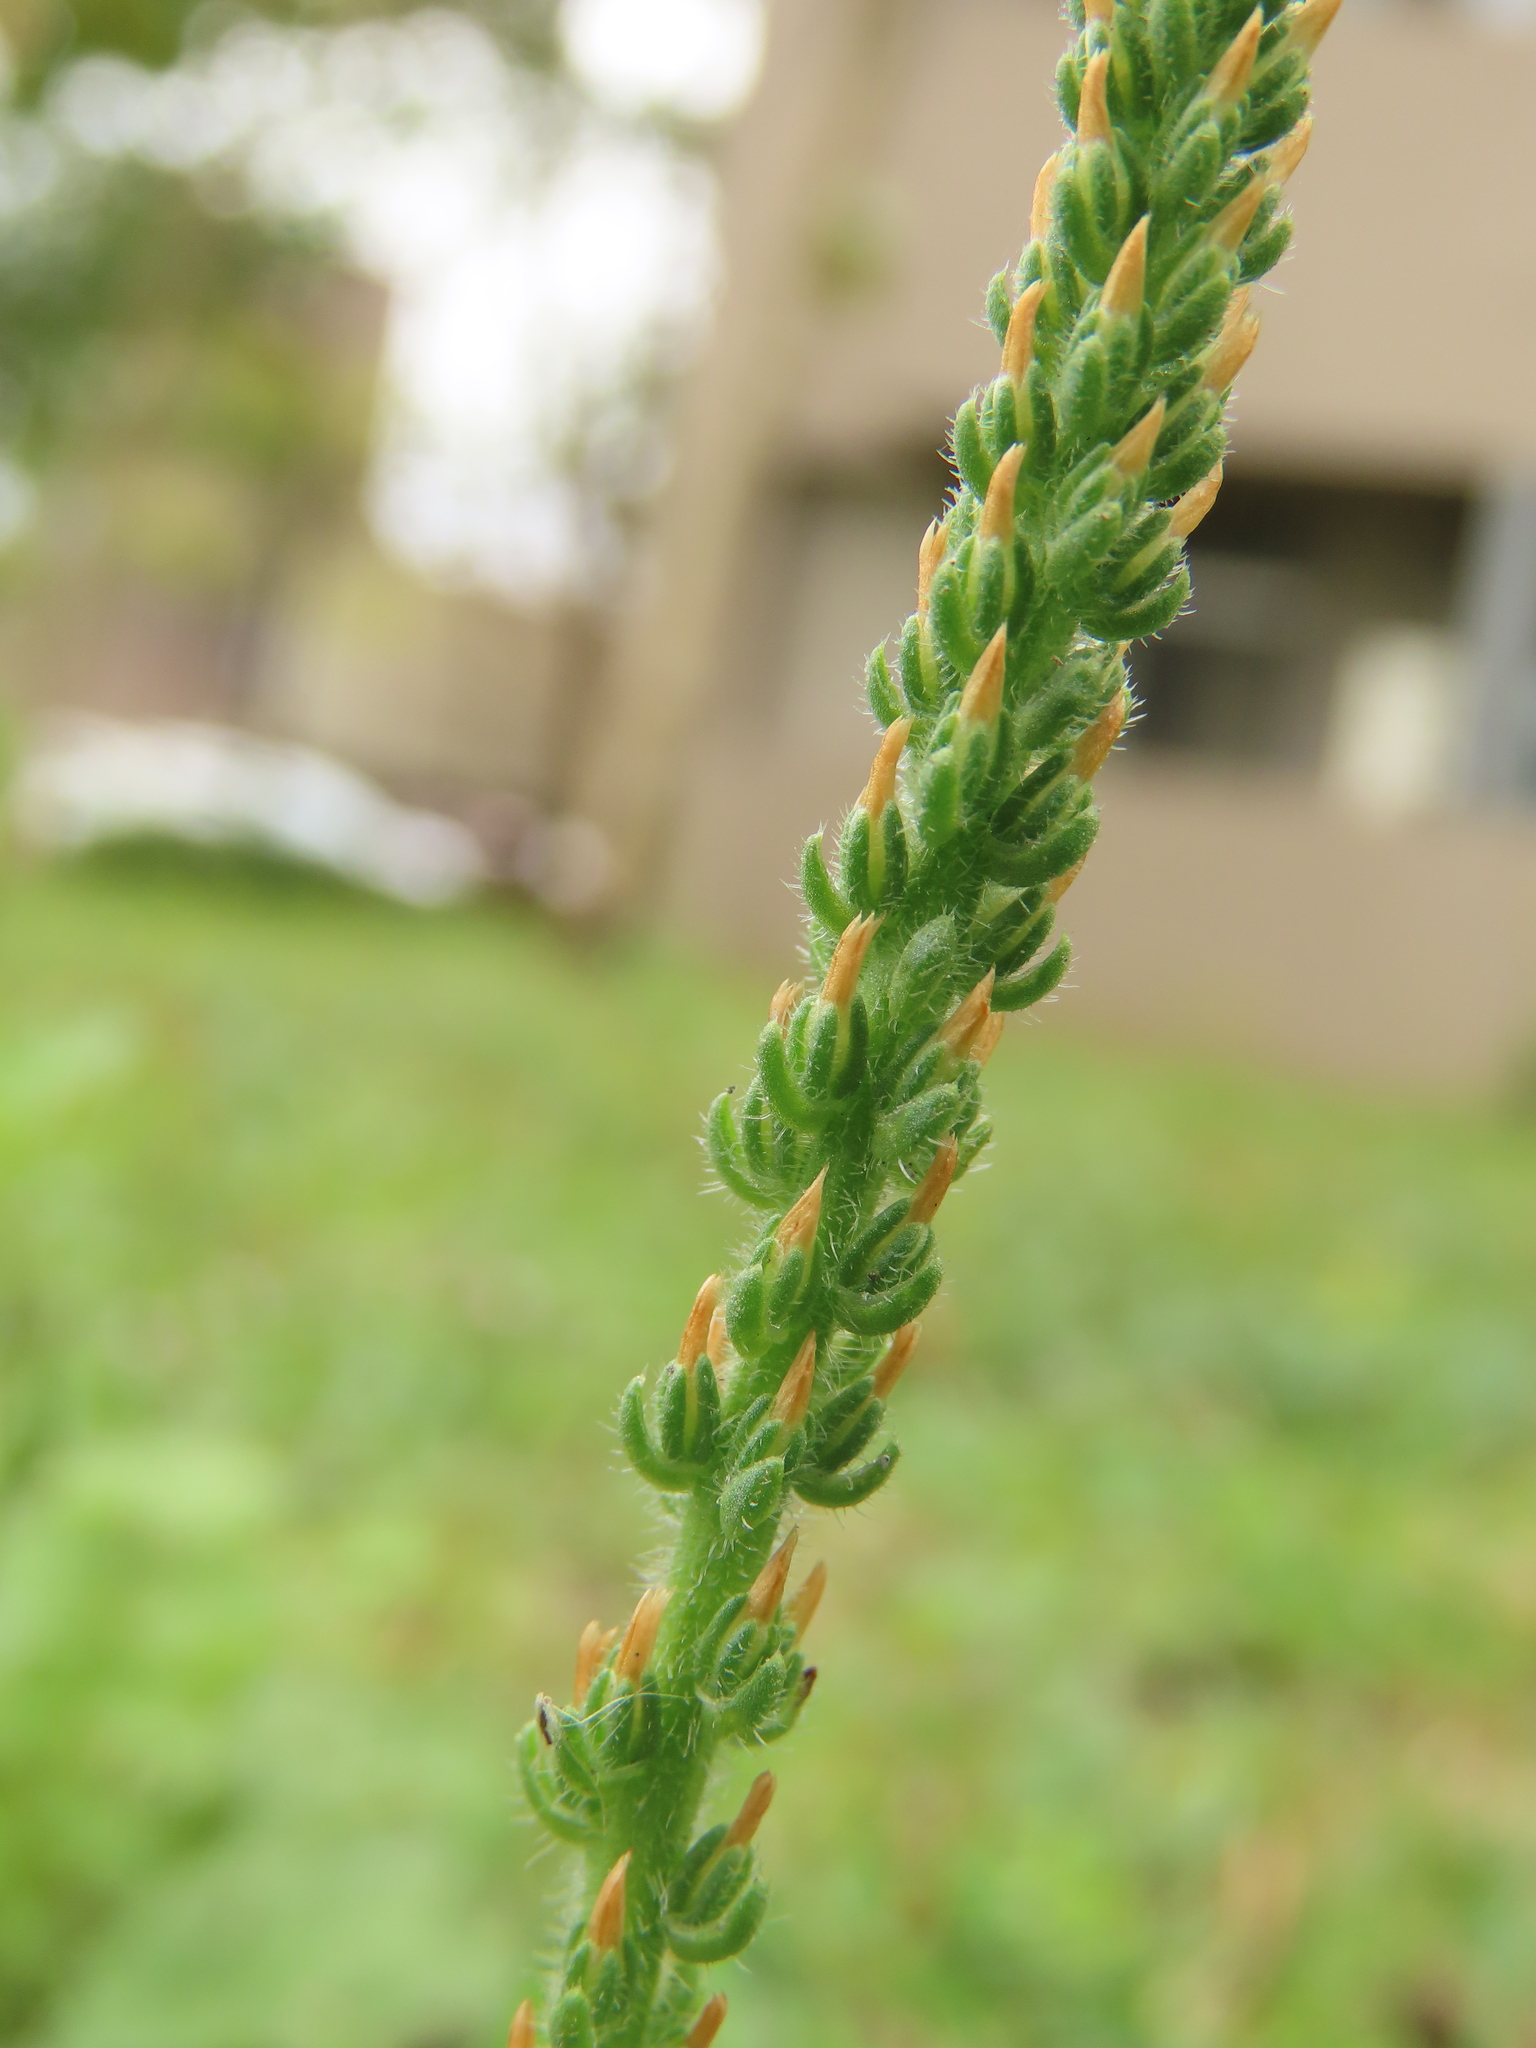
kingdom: Plantae
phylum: Tracheophyta
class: Magnoliopsida
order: Lamiales
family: Plantaginaceae
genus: Plantago
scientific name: Plantago virginica
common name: Hoary plantain
